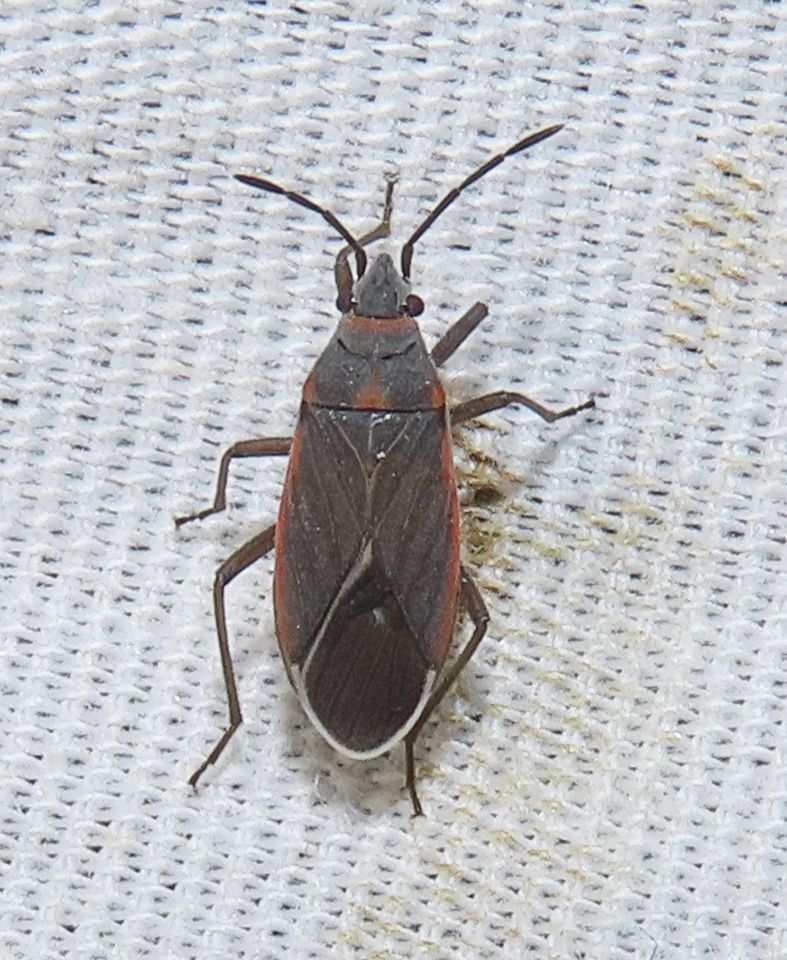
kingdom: Animalia
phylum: Arthropoda
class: Insecta
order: Hemiptera
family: Lygaeidae
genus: Melacoryphus
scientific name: Melacoryphus lateralis
